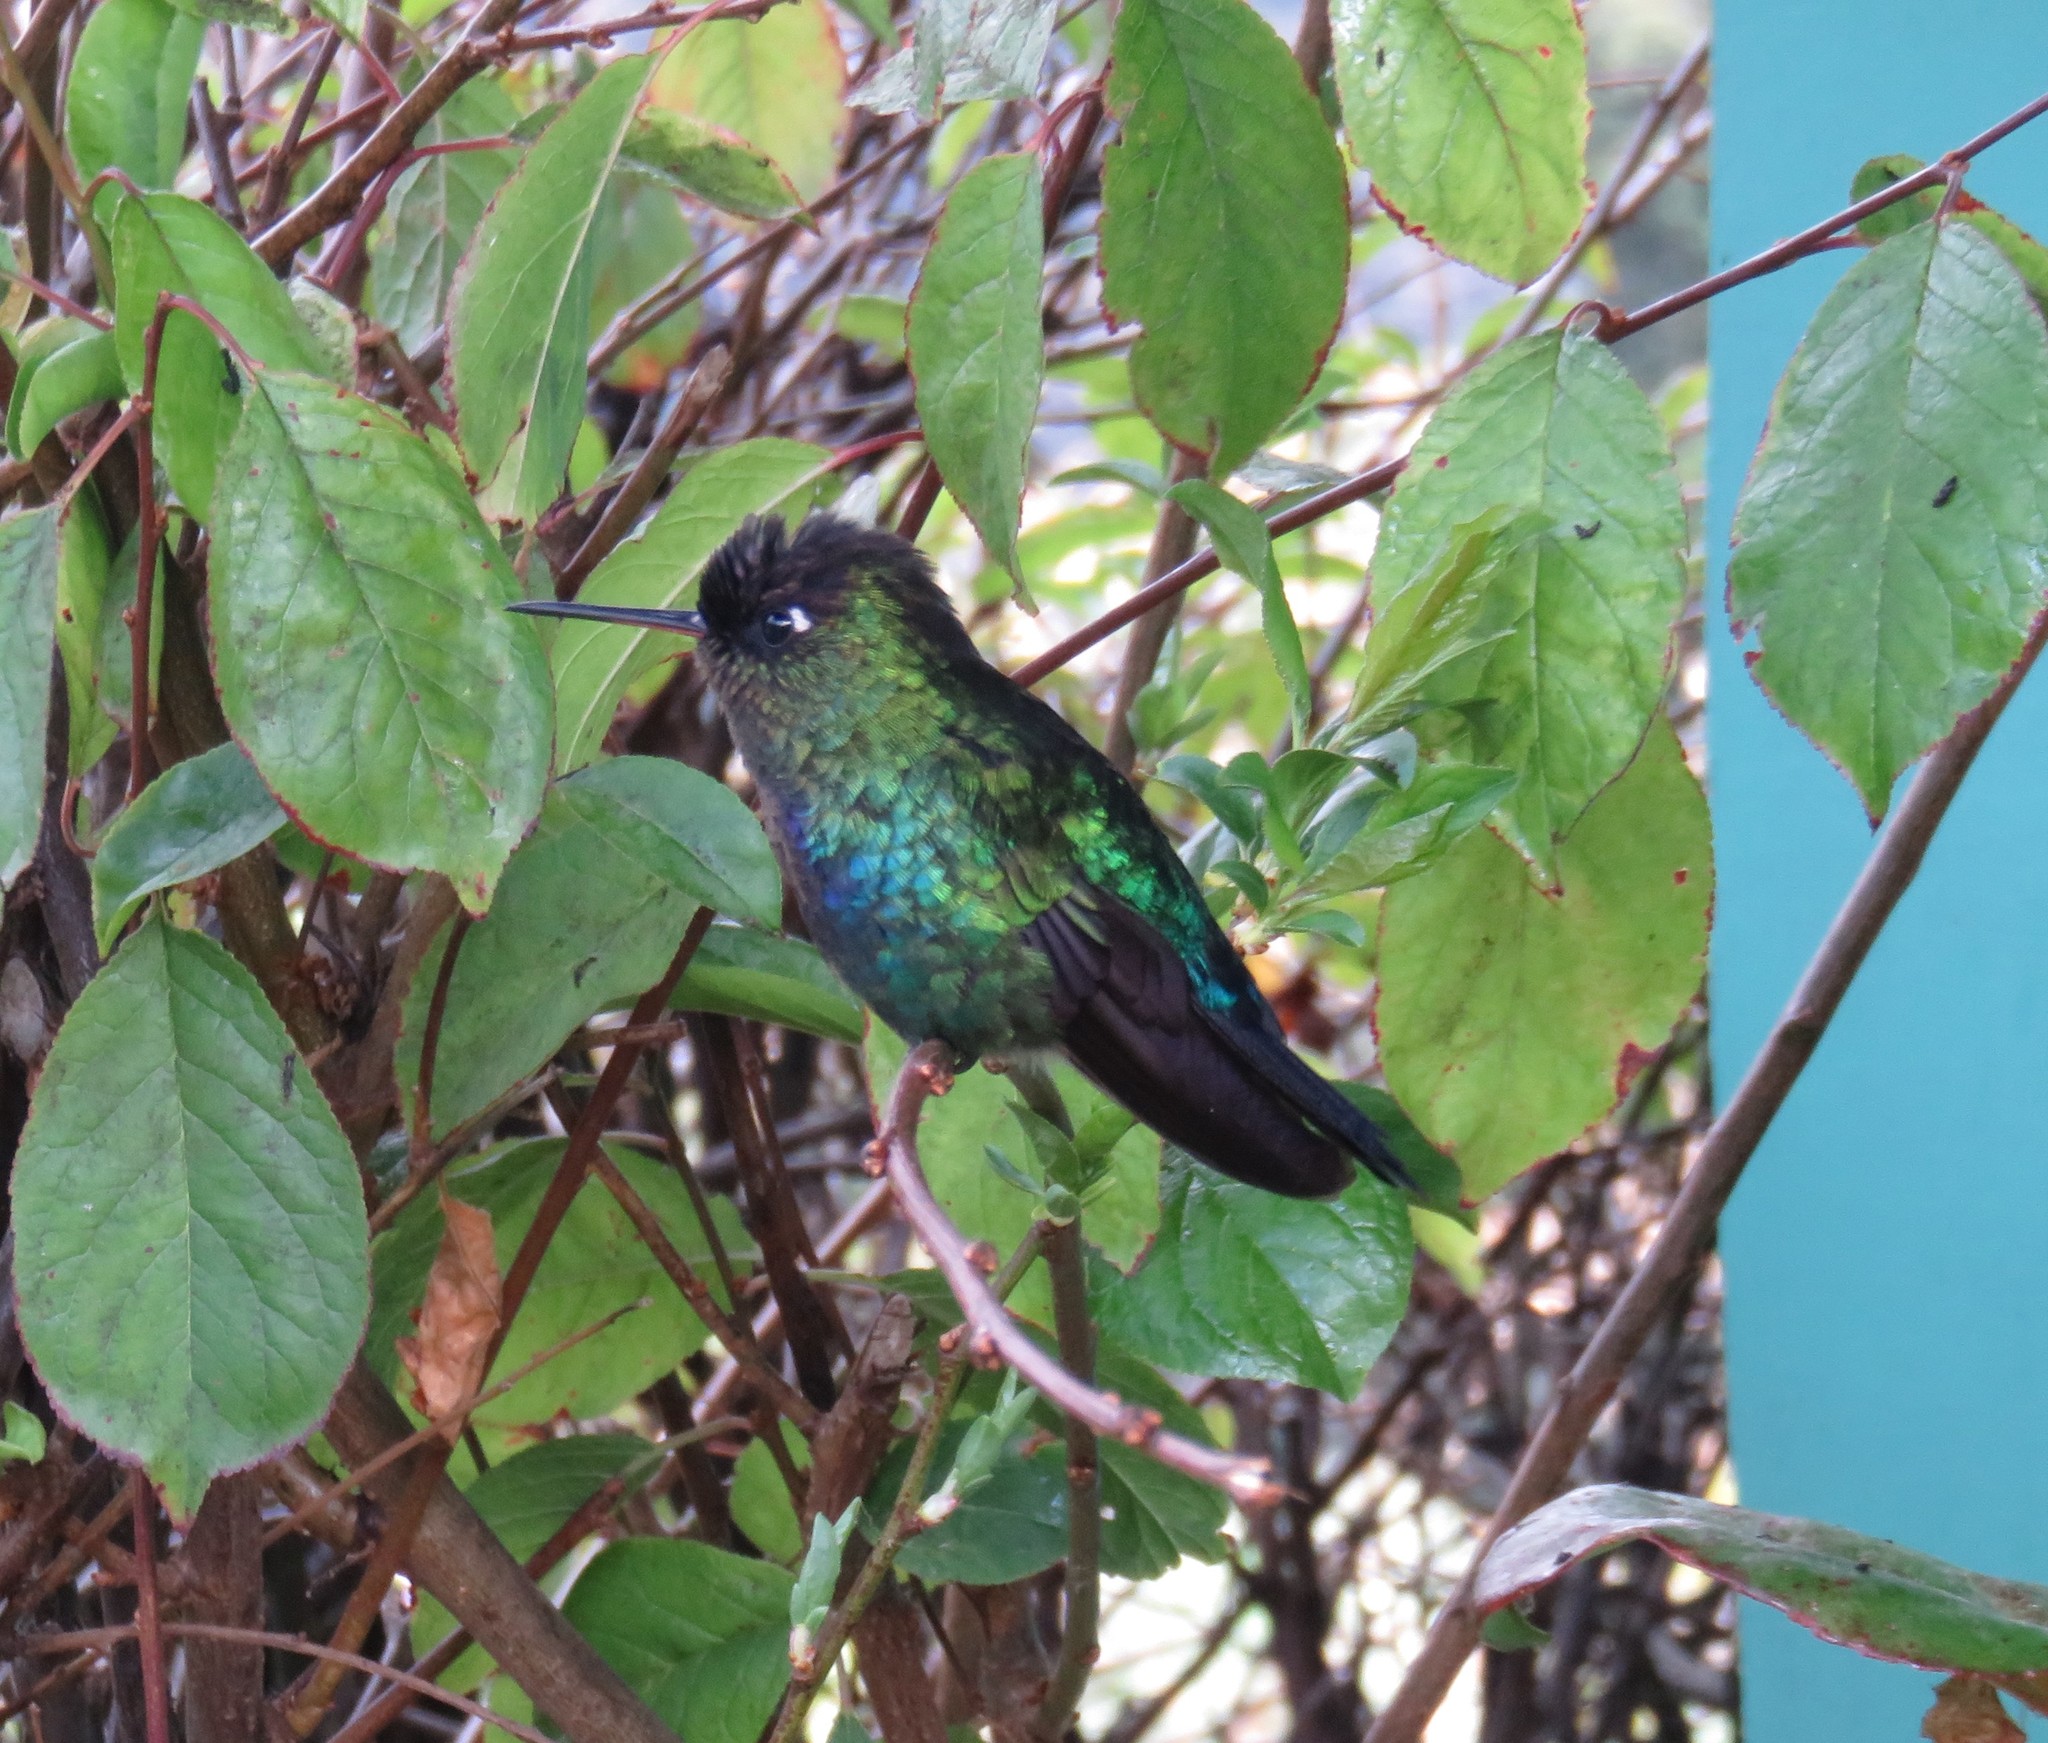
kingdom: Animalia
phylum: Chordata
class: Aves
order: Apodiformes
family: Trochilidae
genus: Panterpe
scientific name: Panterpe insignis
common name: Fiery-throated hummingbird
